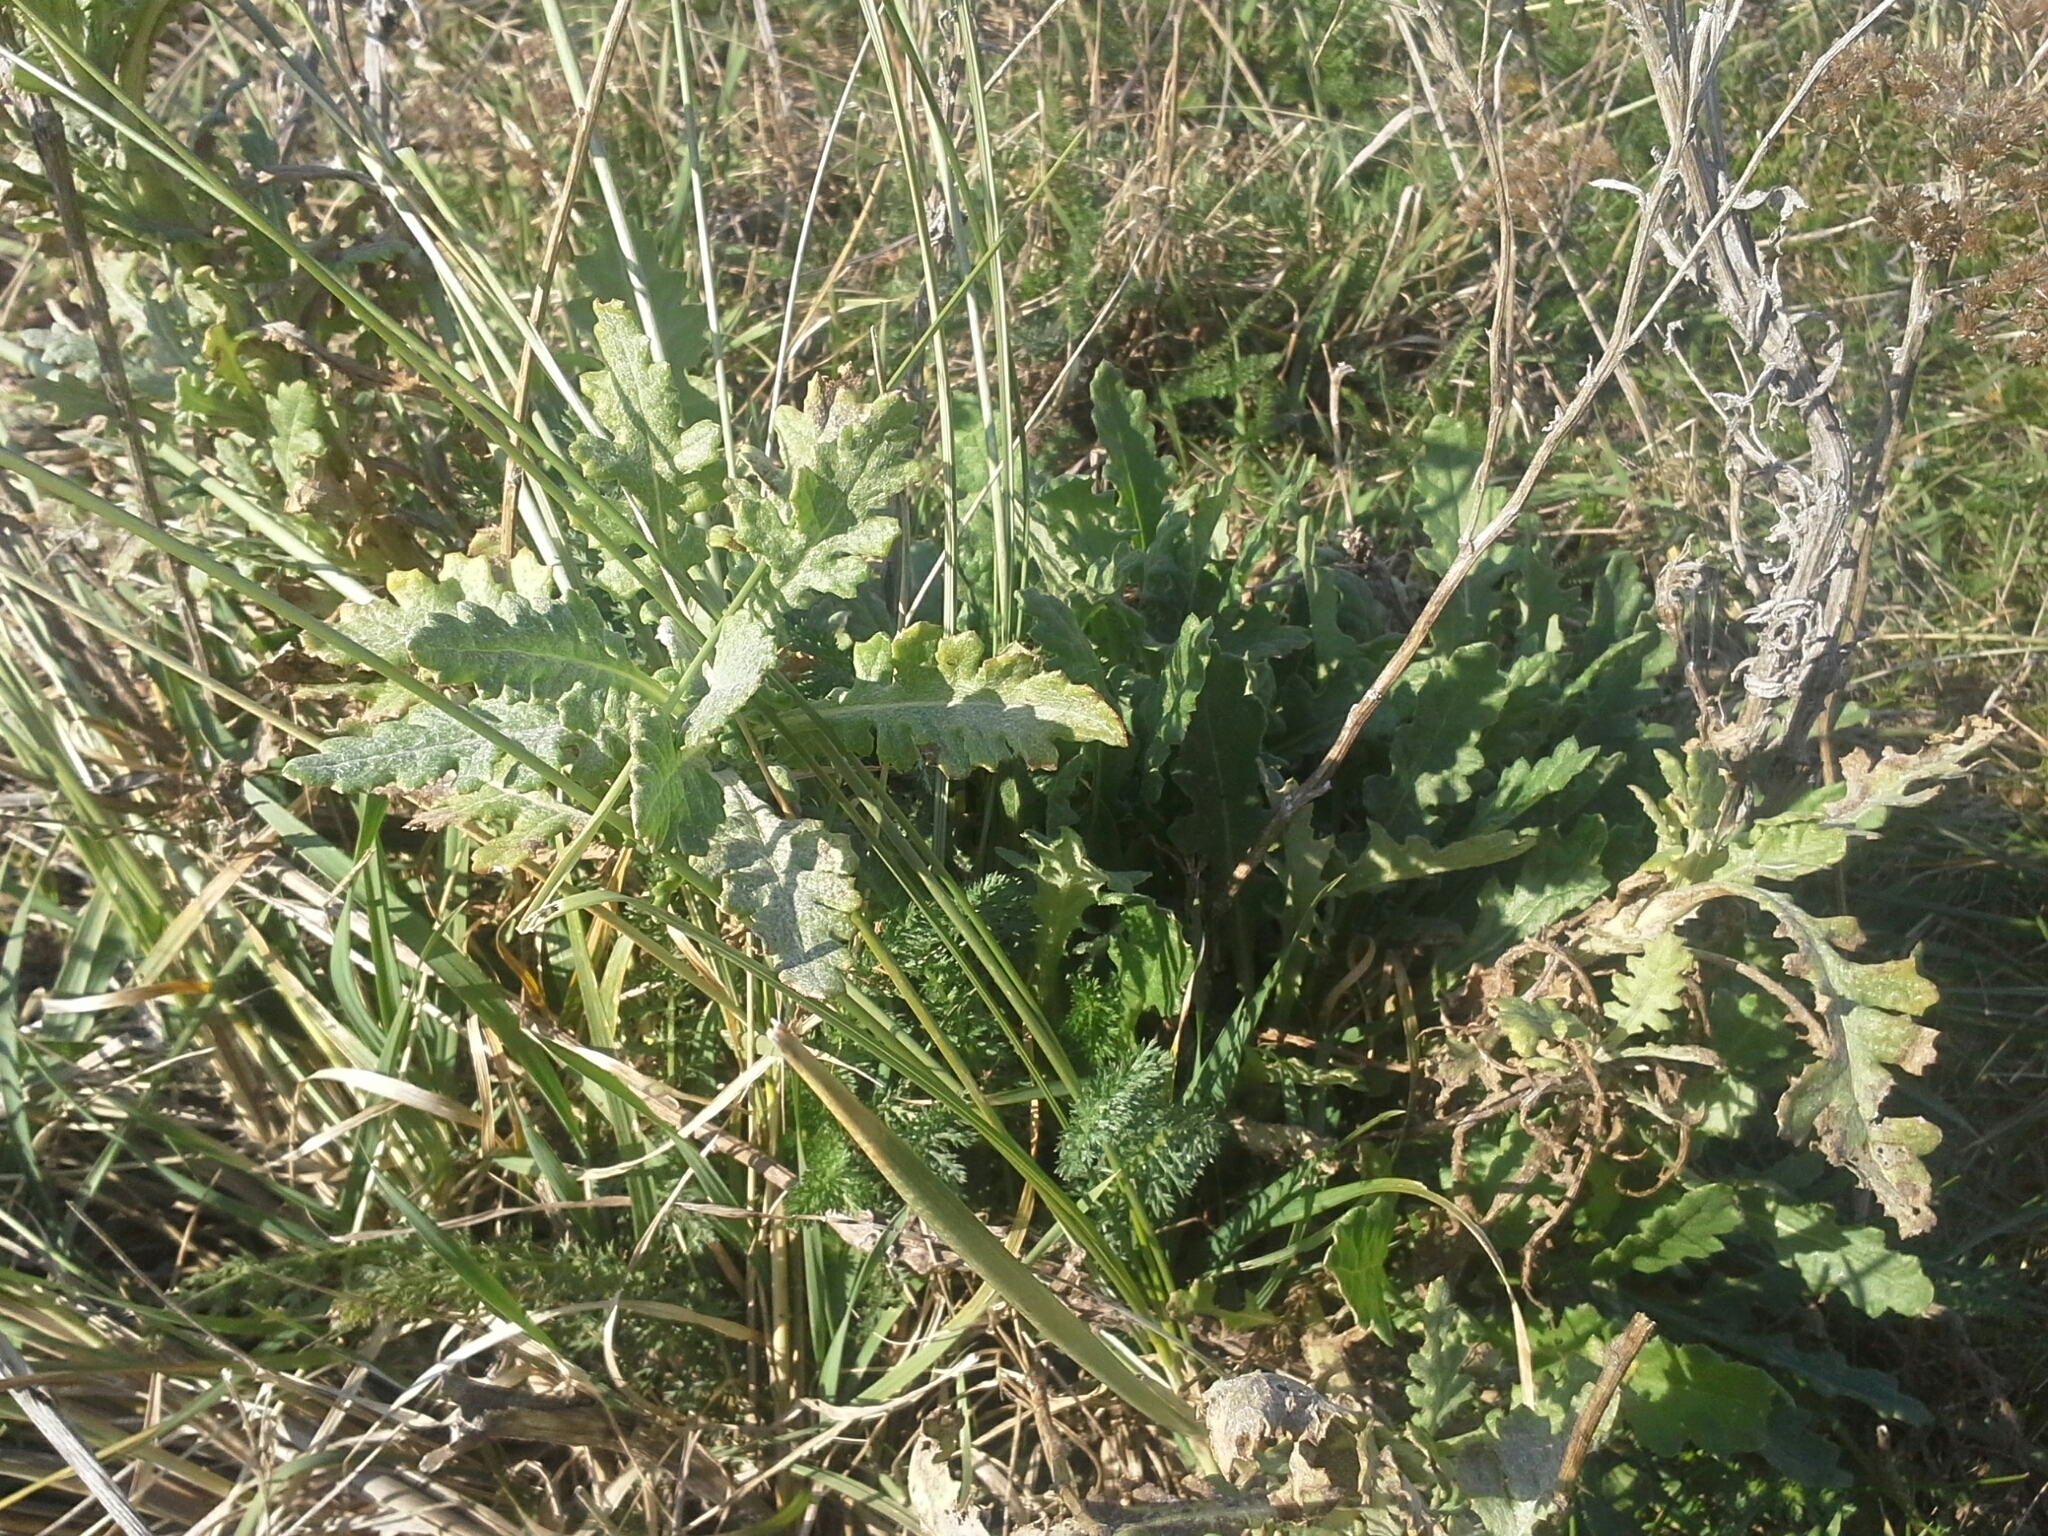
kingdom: Plantae
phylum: Tracheophyta
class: Magnoliopsida
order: Asterales
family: Asteraceae
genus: Senecio
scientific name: Senecio glomeratus
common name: Cutleaf burnweed
